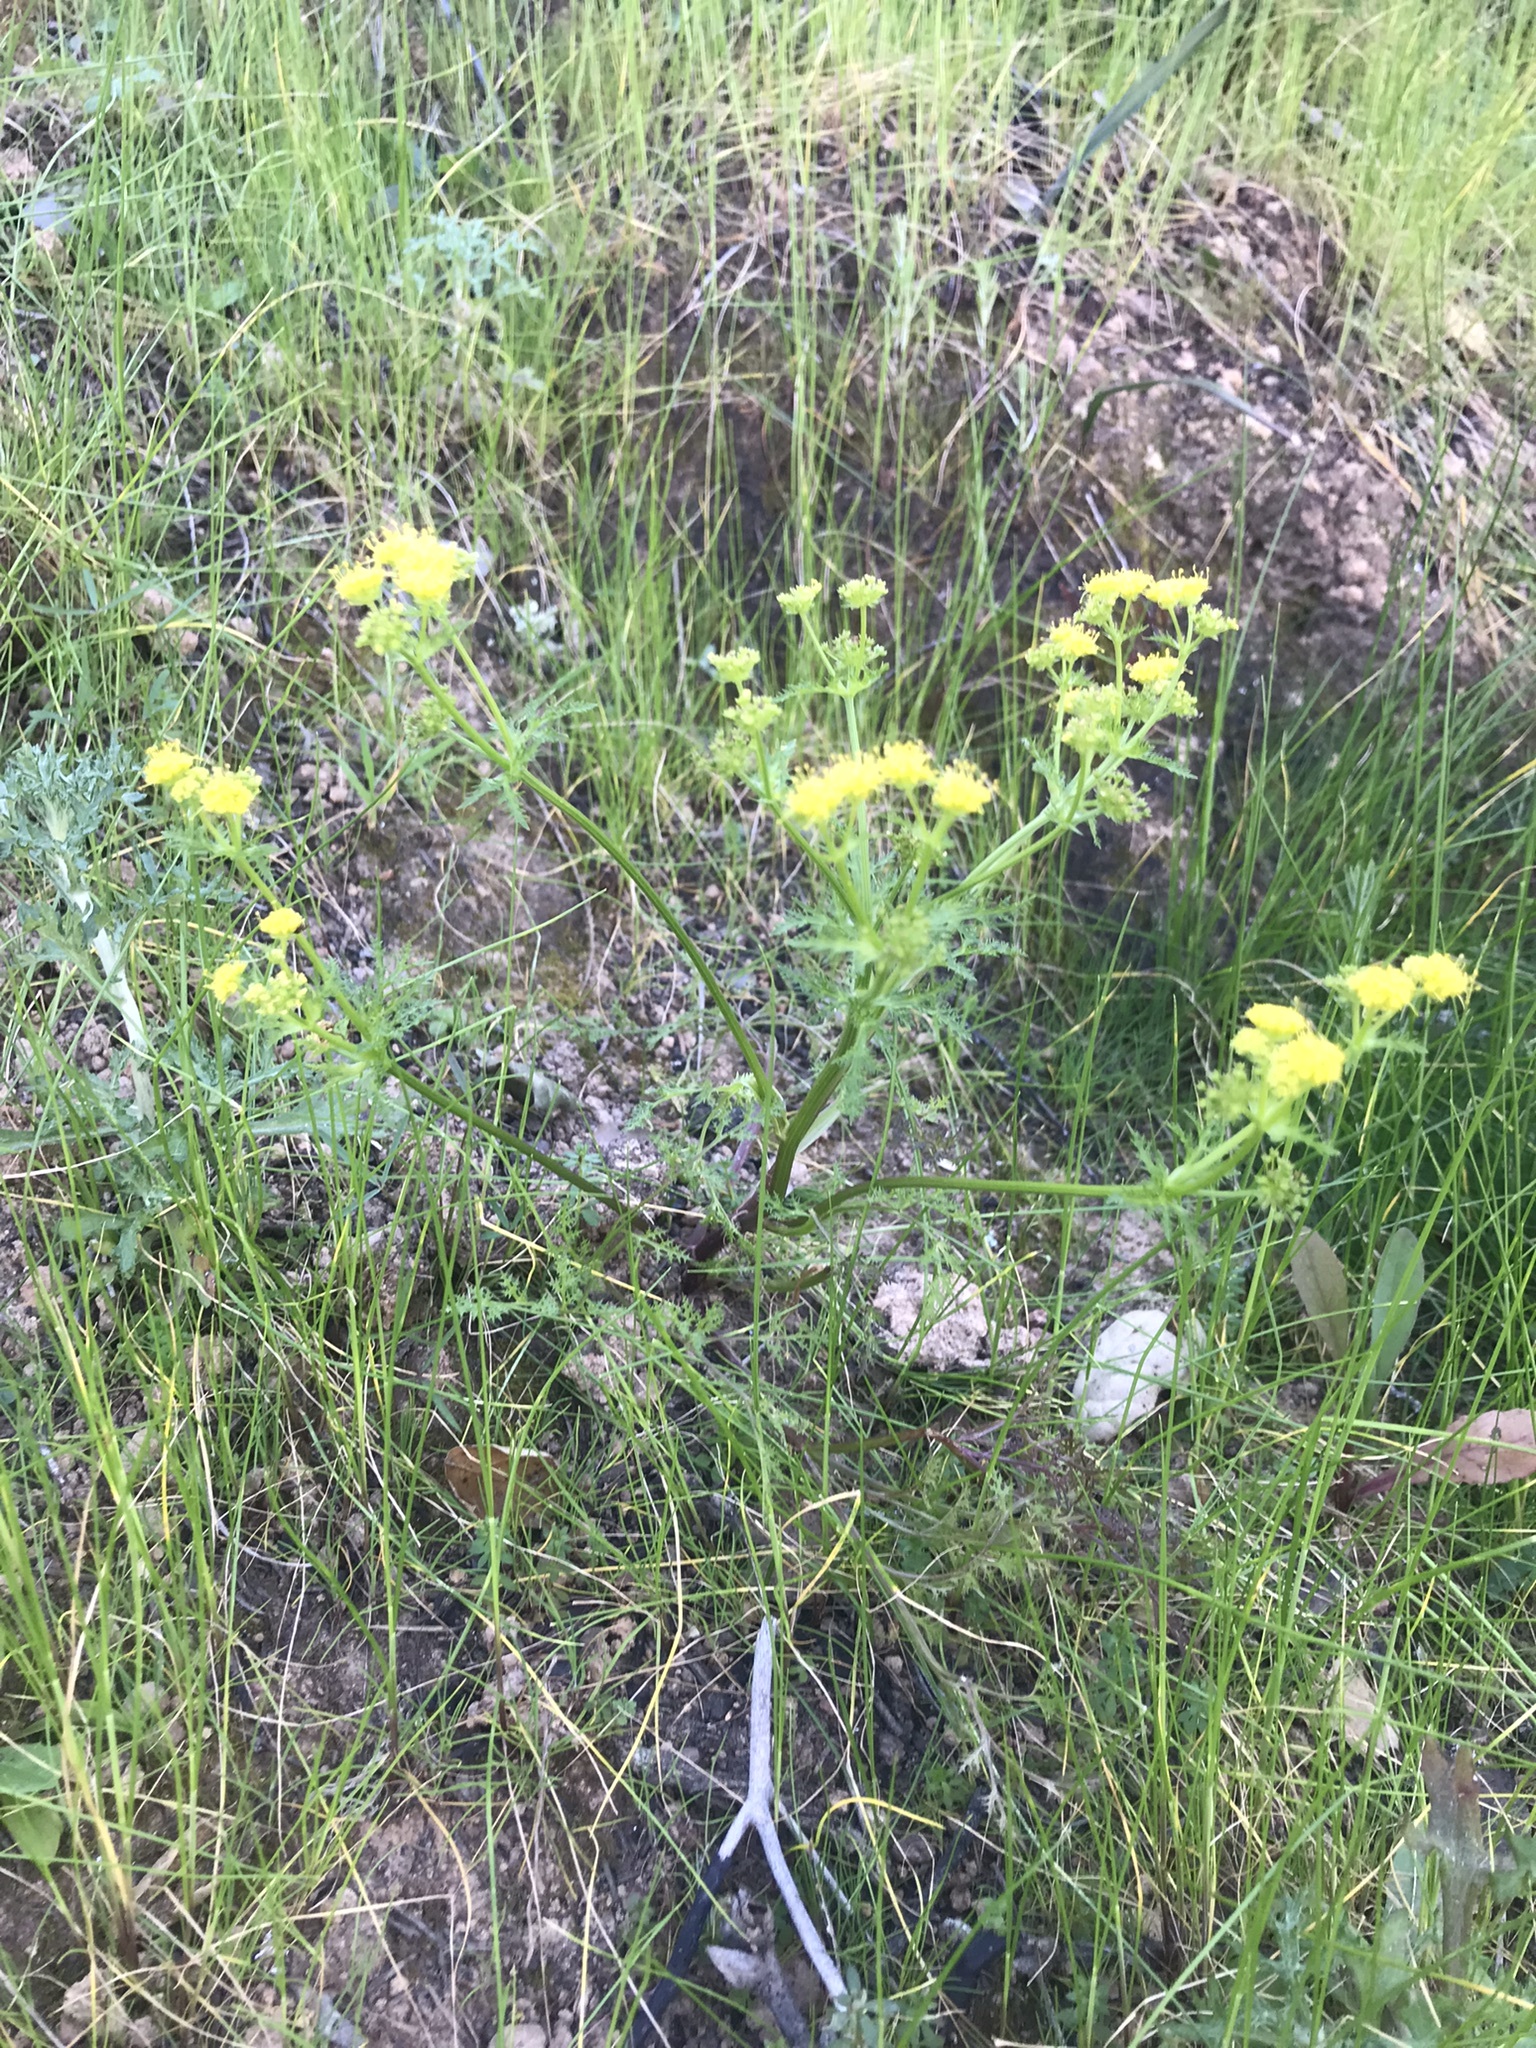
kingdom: Plantae
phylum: Tracheophyta
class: Magnoliopsida
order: Apiales
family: Apiaceae
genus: Sanicula
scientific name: Sanicula tuberosa
